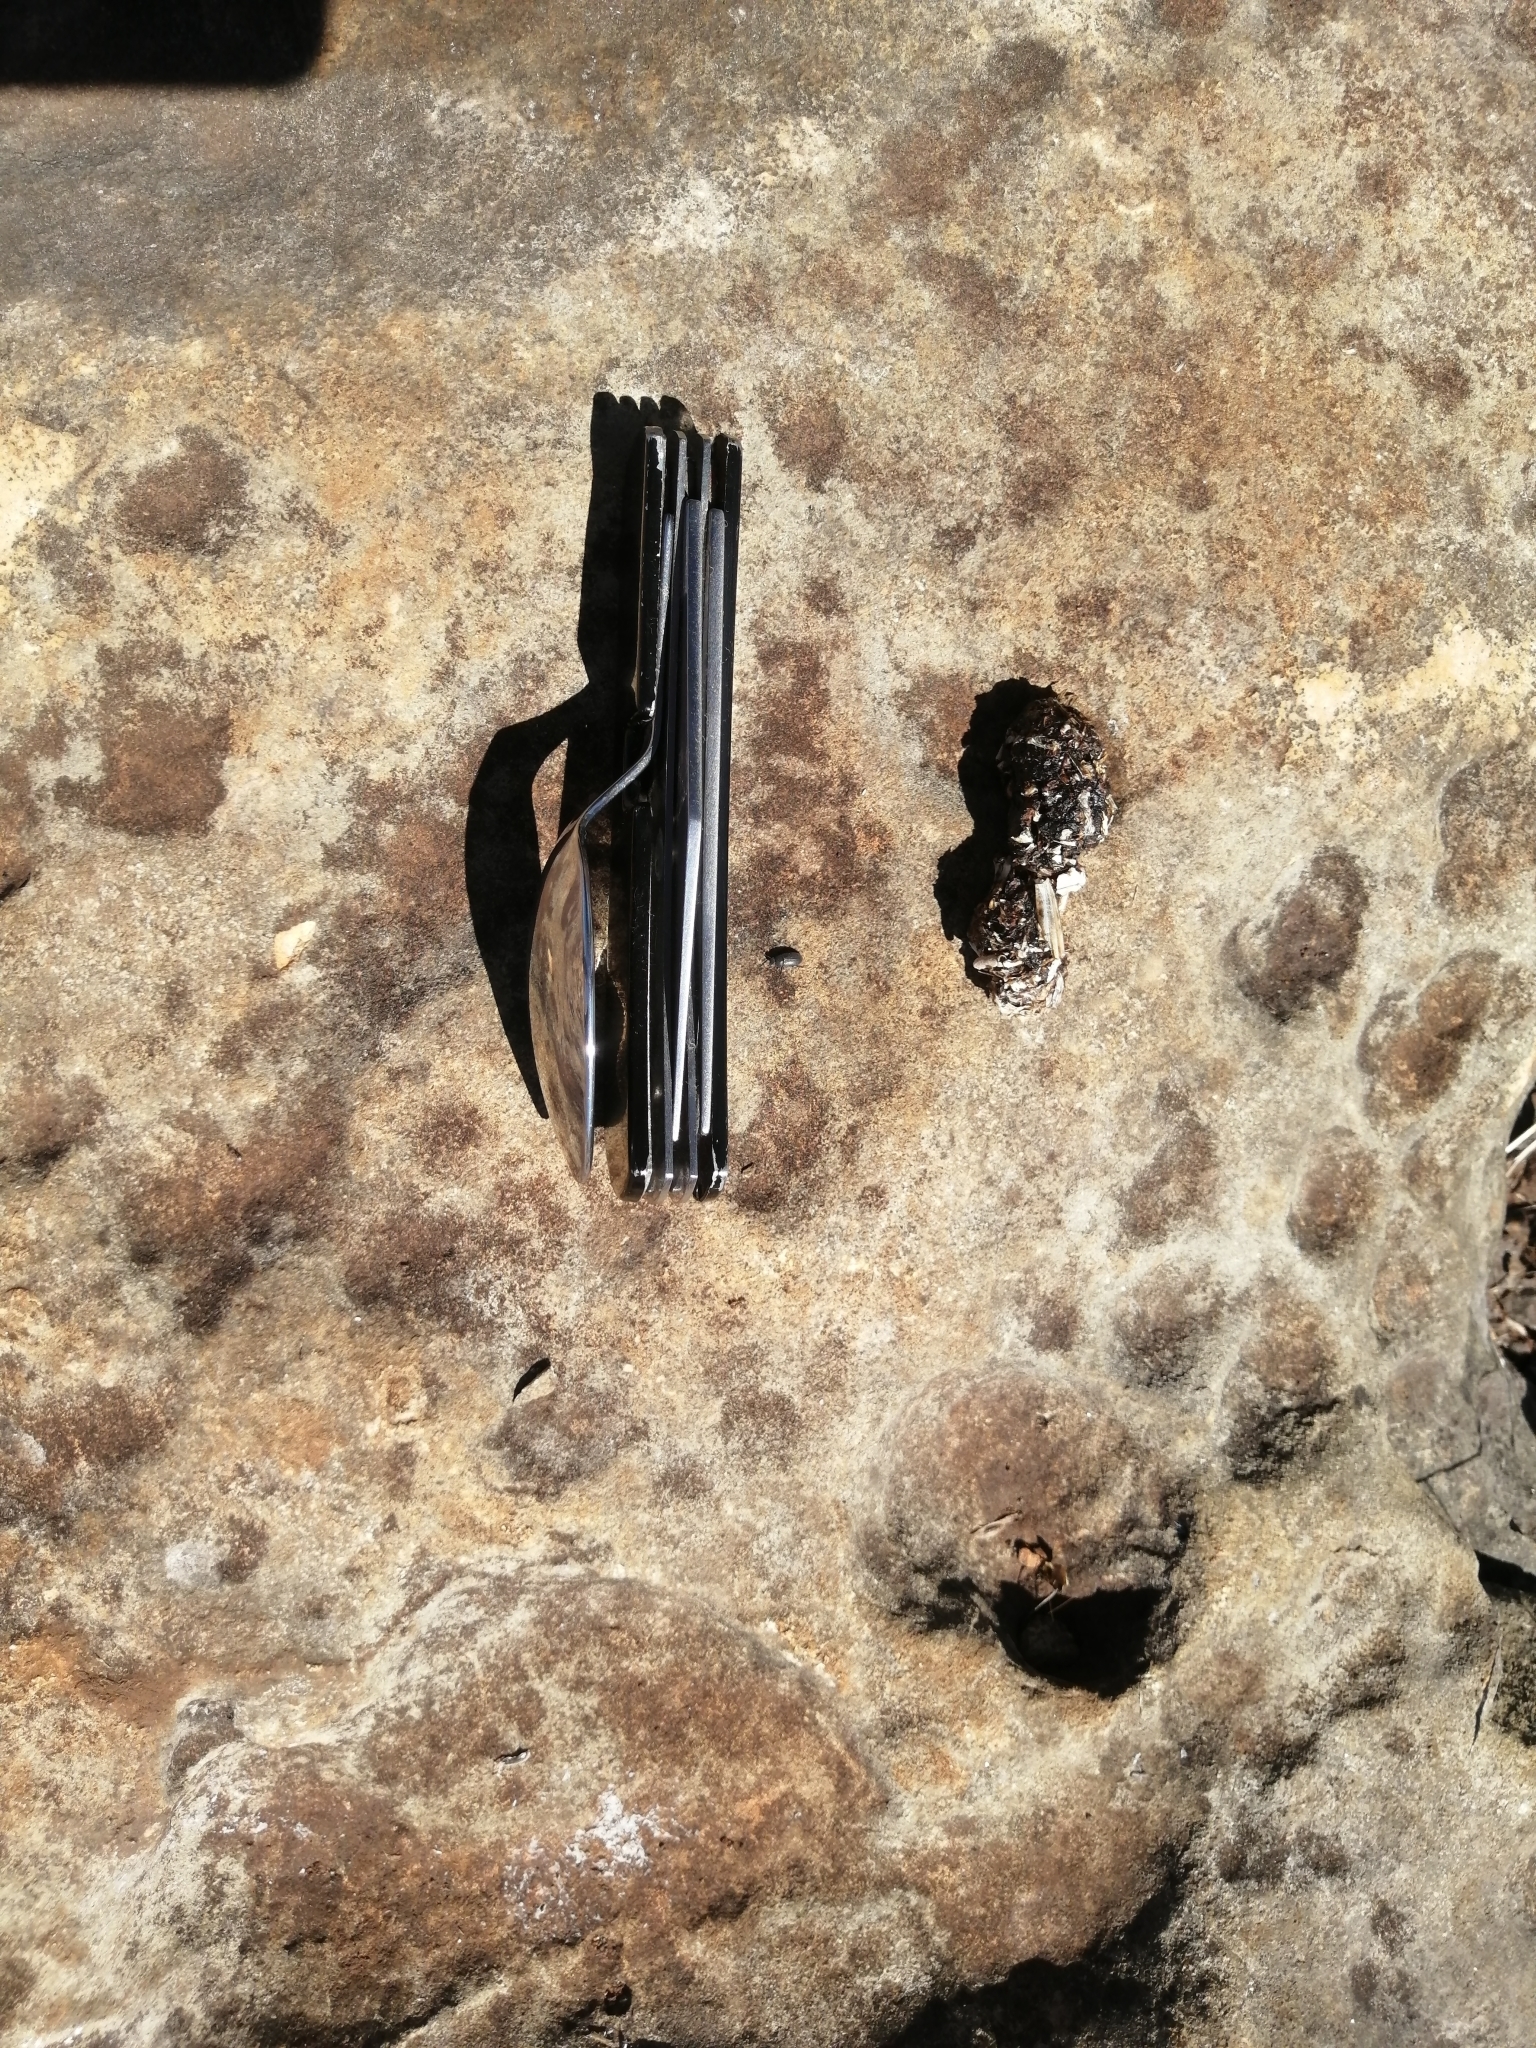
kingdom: Animalia
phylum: Chordata
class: Mammalia
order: Carnivora
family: Canidae
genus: Urocyon
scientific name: Urocyon cinereoargenteus
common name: Gray fox
